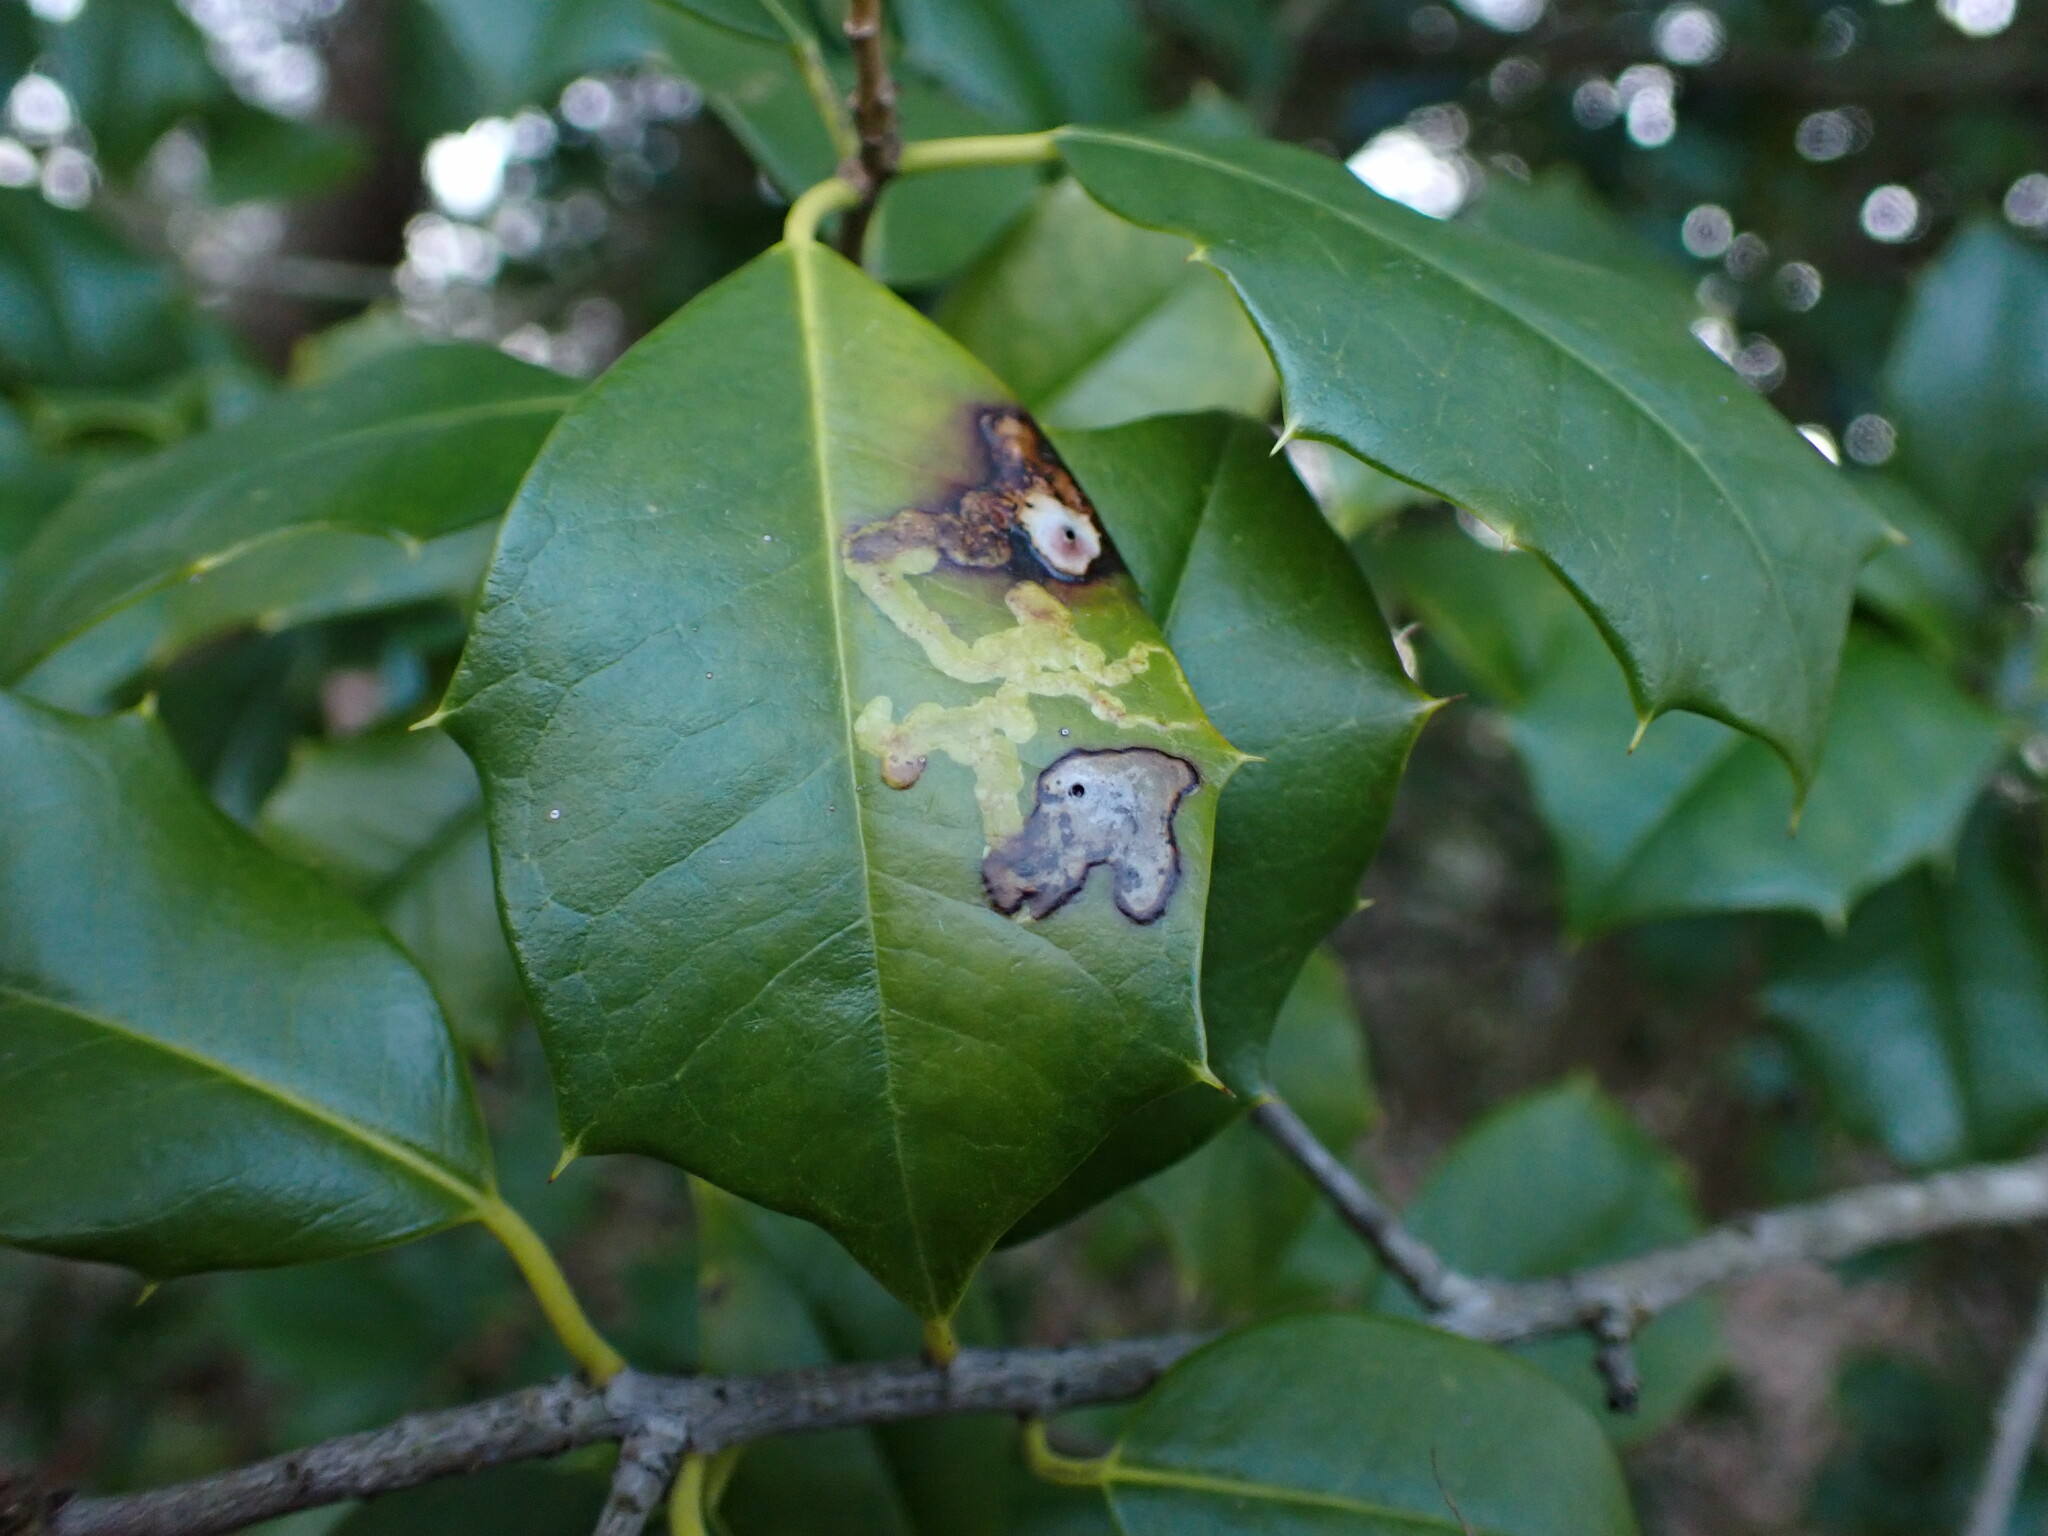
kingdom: Animalia
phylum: Arthropoda
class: Insecta
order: Diptera
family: Agromyzidae
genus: Phytomyza
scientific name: Phytomyza ilicicola
